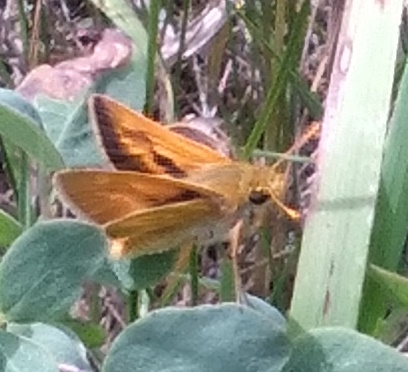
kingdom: Animalia
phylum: Arthropoda
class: Insecta
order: Lepidoptera
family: Hesperiidae
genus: Polites
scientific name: Polites mystic
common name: Long dash
